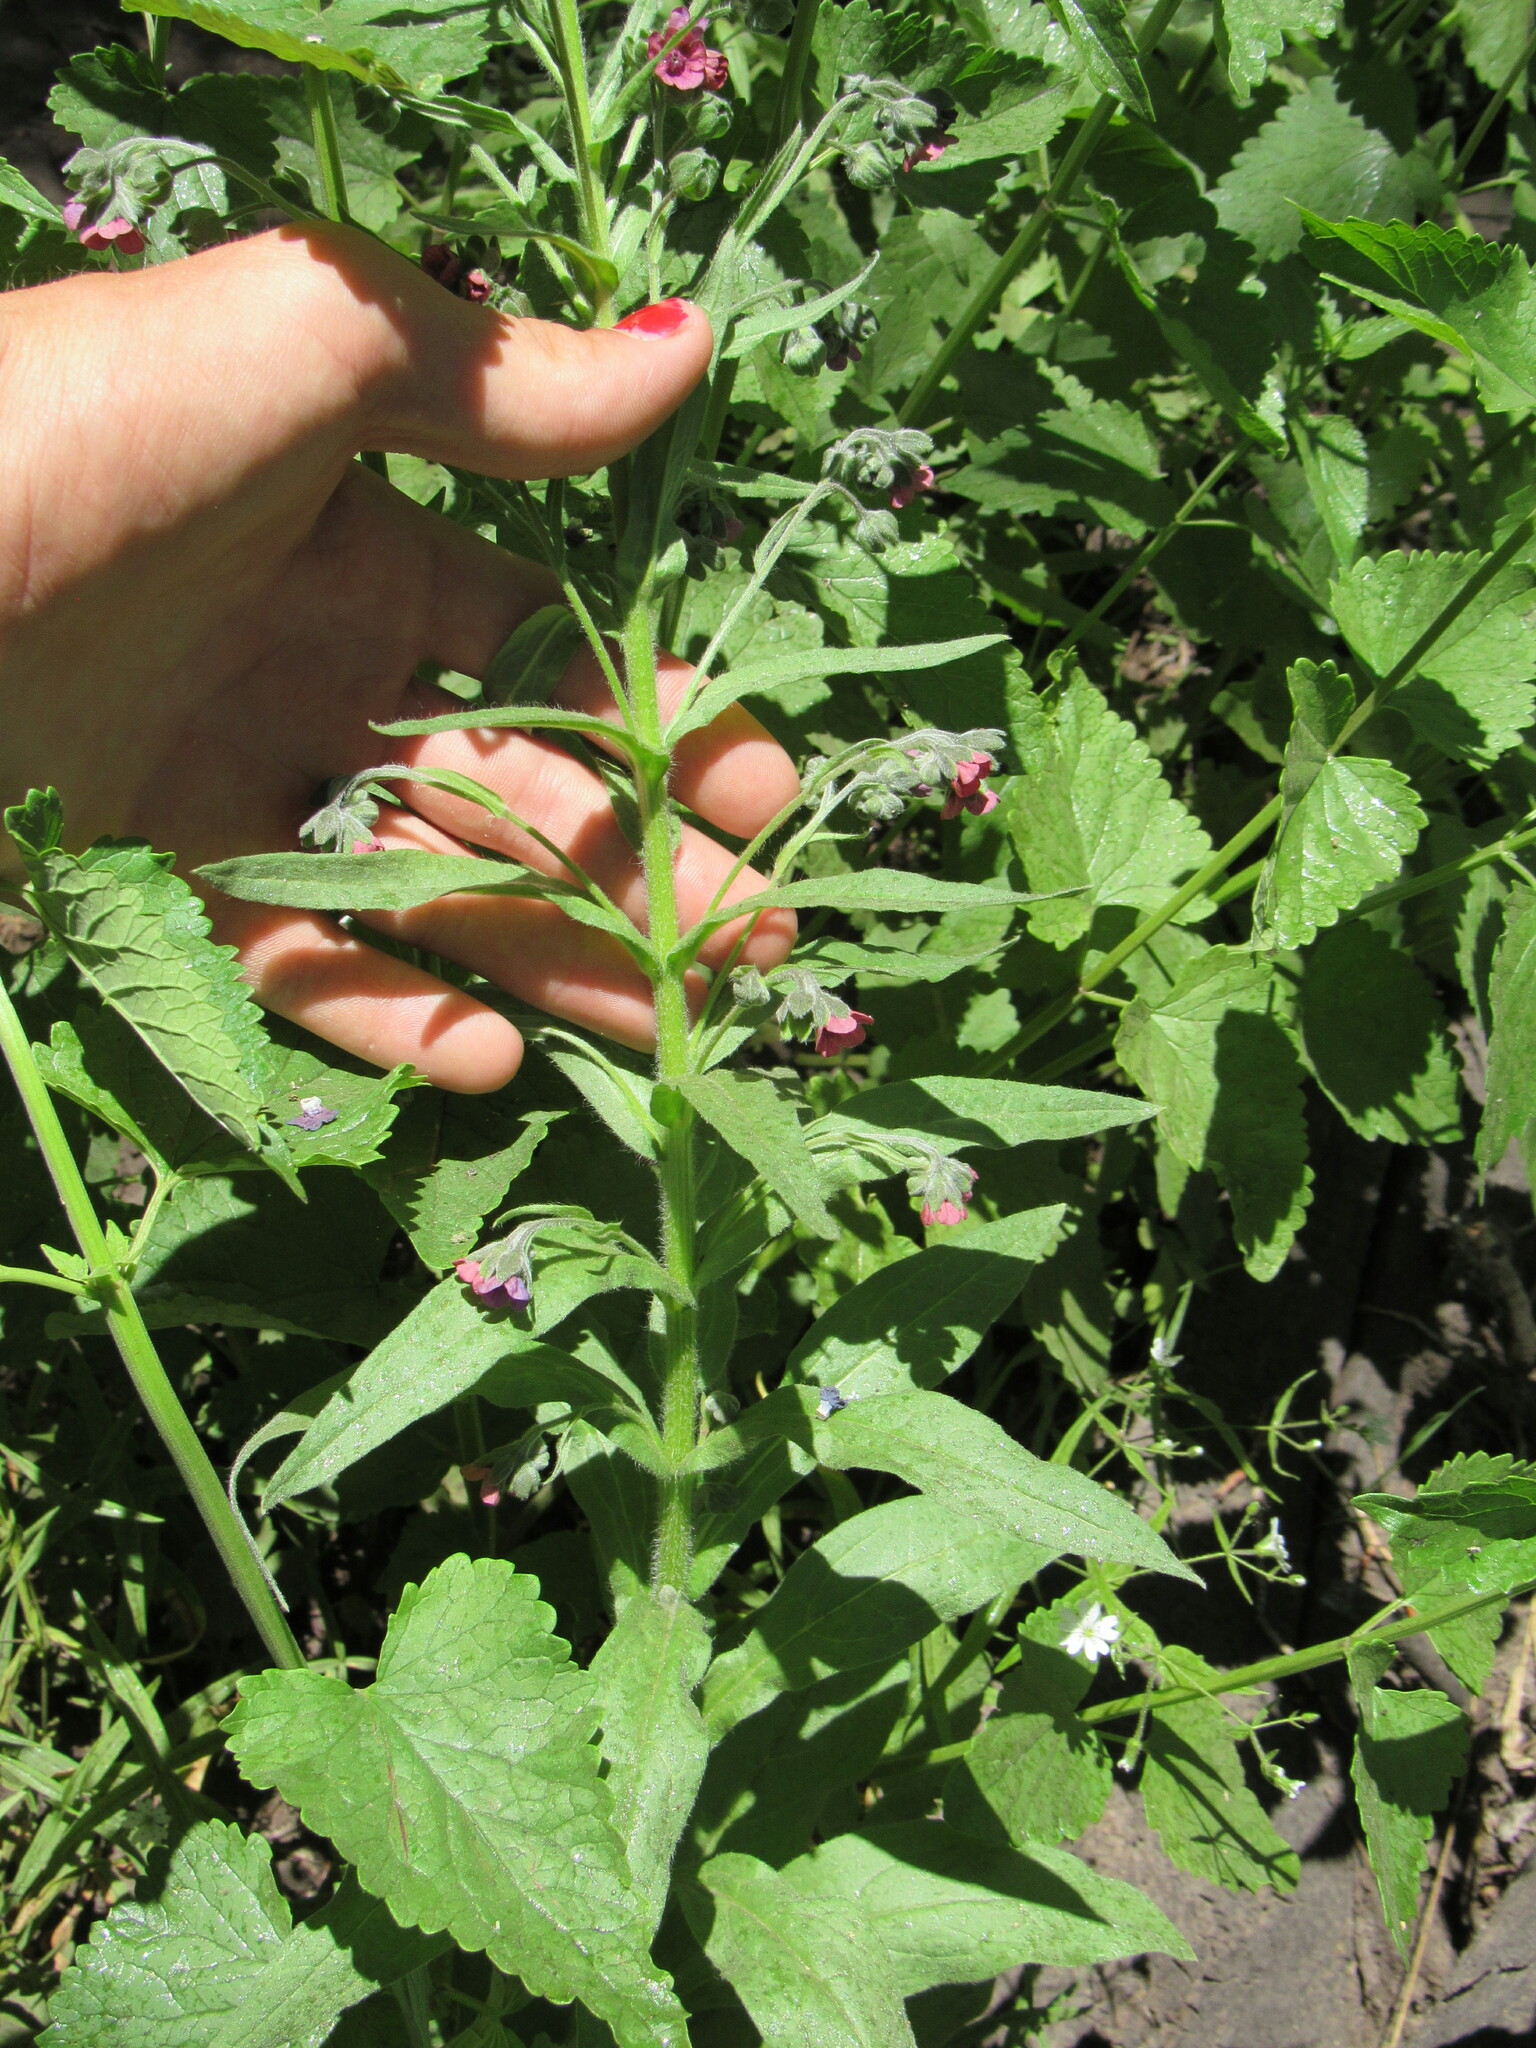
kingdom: Plantae
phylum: Tracheophyta
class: Magnoliopsida
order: Boraginales
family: Boraginaceae
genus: Cynoglossum
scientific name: Cynoglossum officinale
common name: Hound's-tongue
